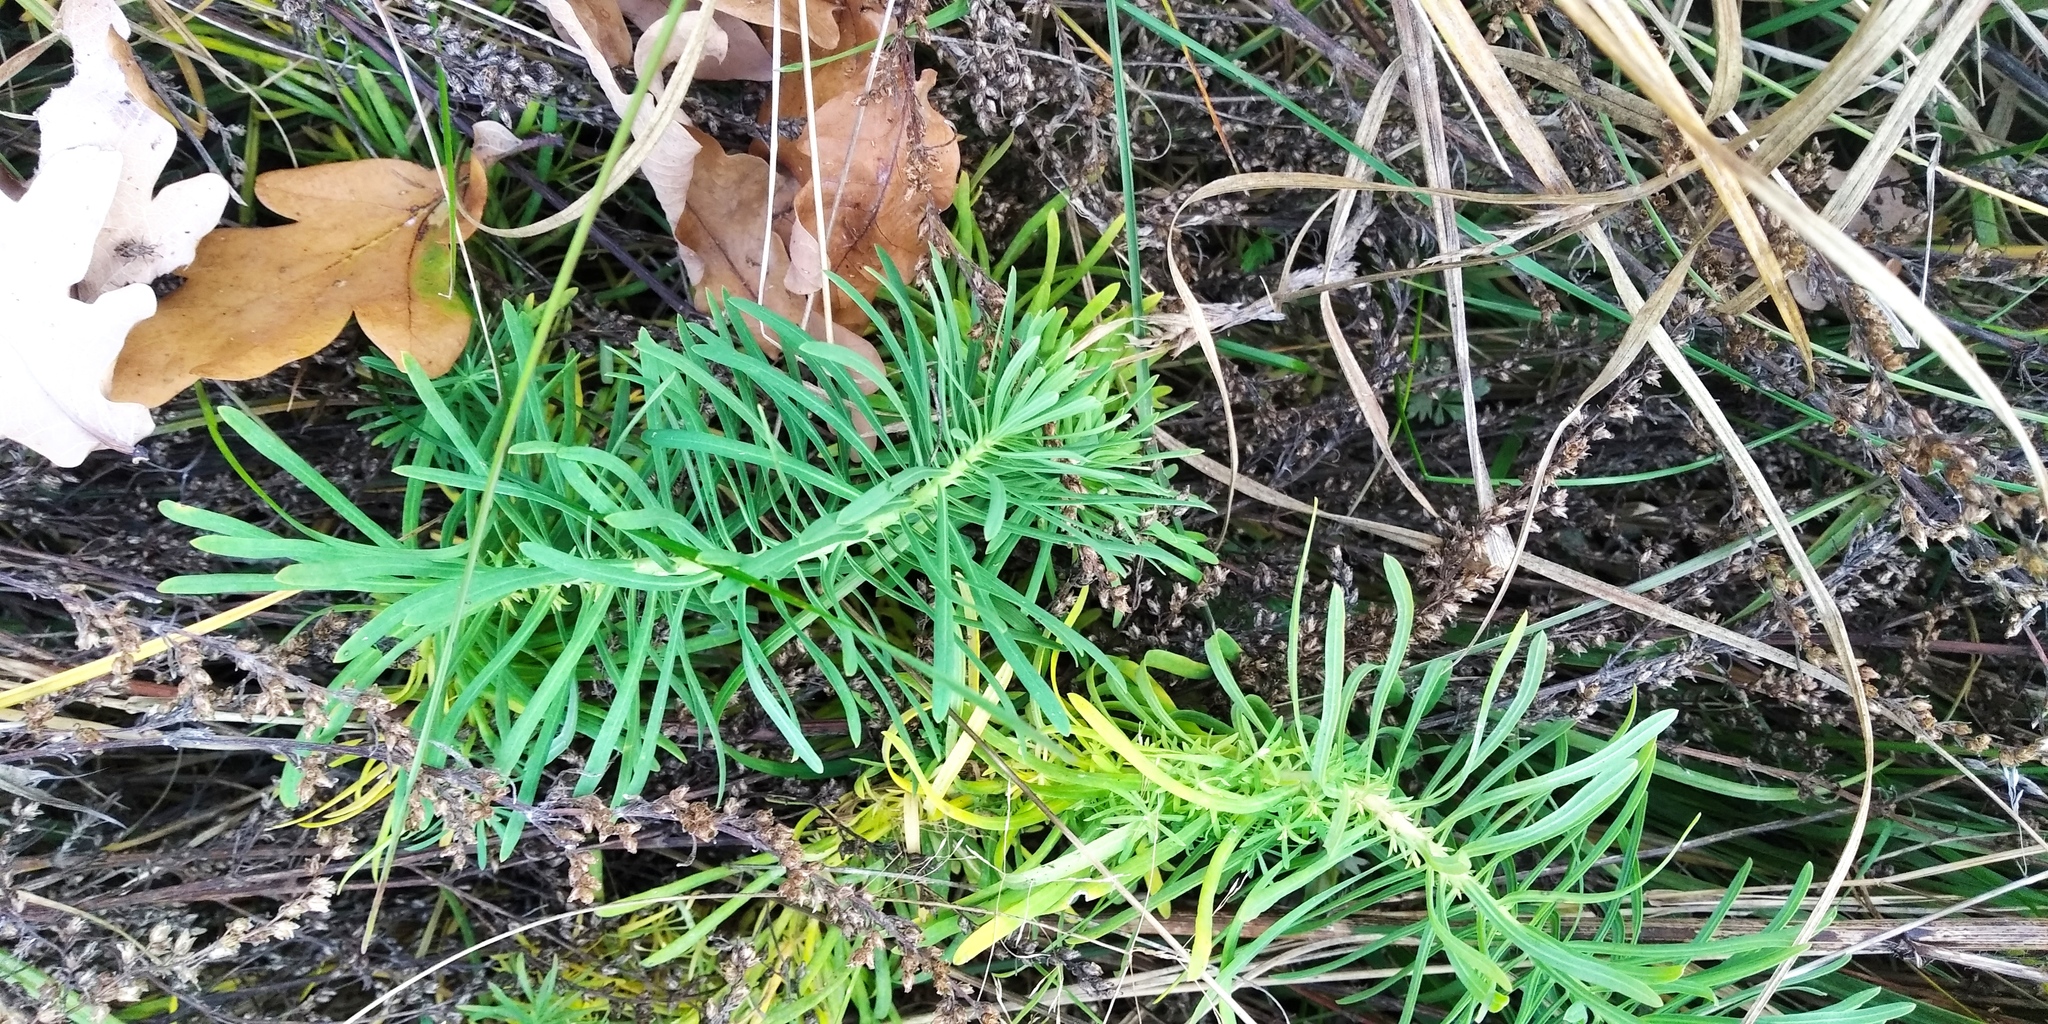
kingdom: Plantae
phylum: Tracheophyta
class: Magnoliopsida
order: Malpighiales
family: Euphorbiaceae
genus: Euphorbia
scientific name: Euphorbia cyparissias
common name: Cypress spurge
